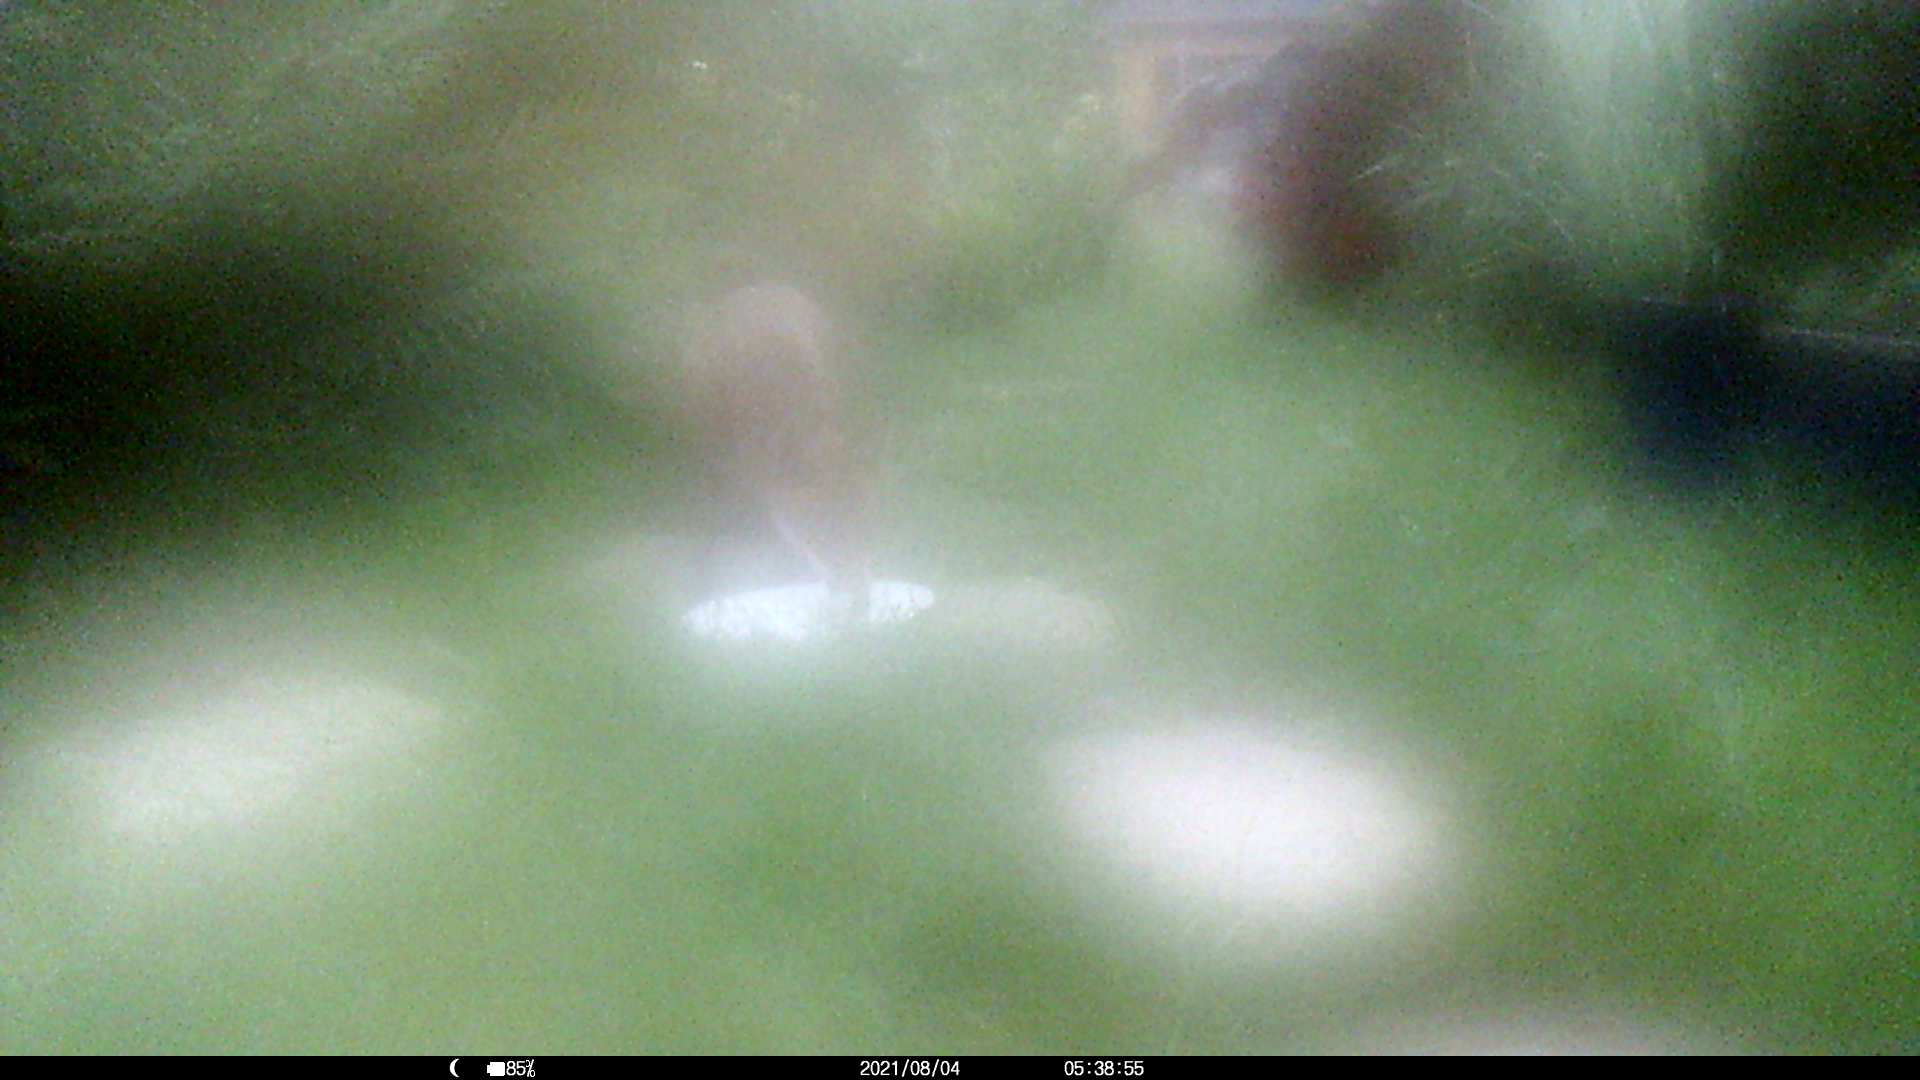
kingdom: Animalia
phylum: Chordata
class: Mammalia
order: Carnivora
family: Canidae
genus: Vulpes
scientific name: Vulpes vulpes
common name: Red fox
